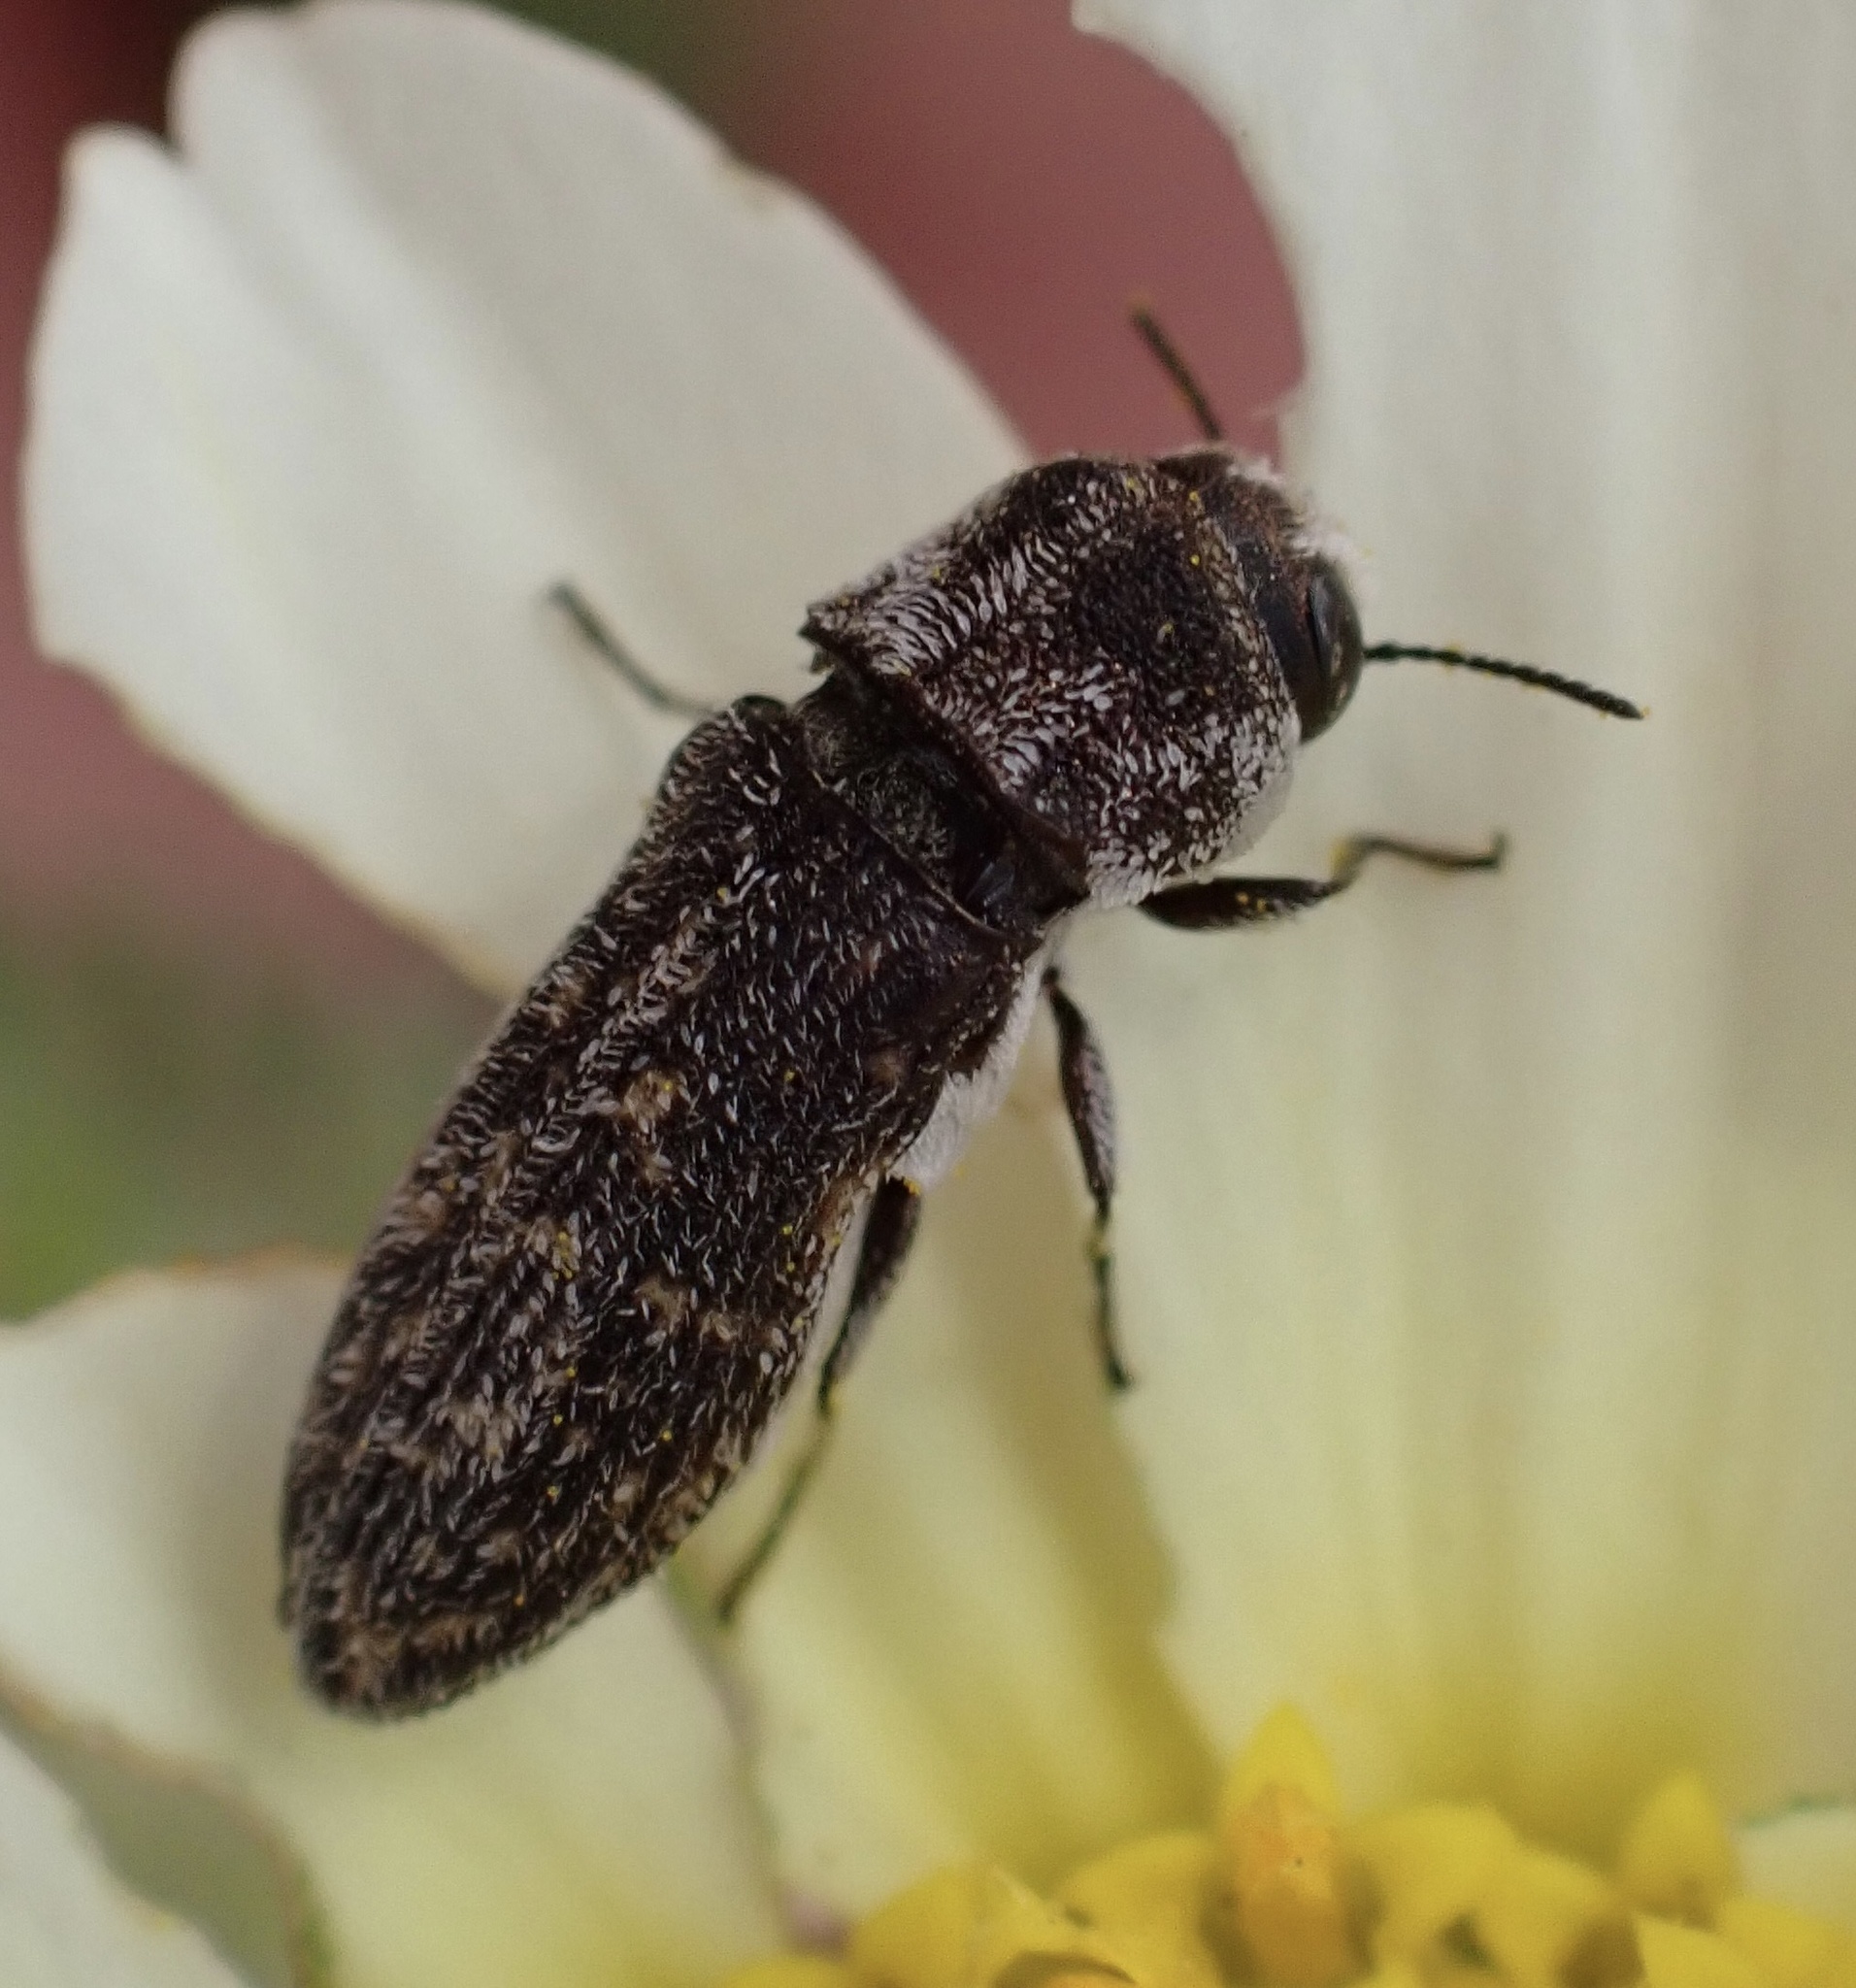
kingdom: Animalia
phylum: Arthropoda
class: Insecta
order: Coleoptera
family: Buprestidae
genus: Acmaeoderella
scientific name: Acmaeoderella adspersula
